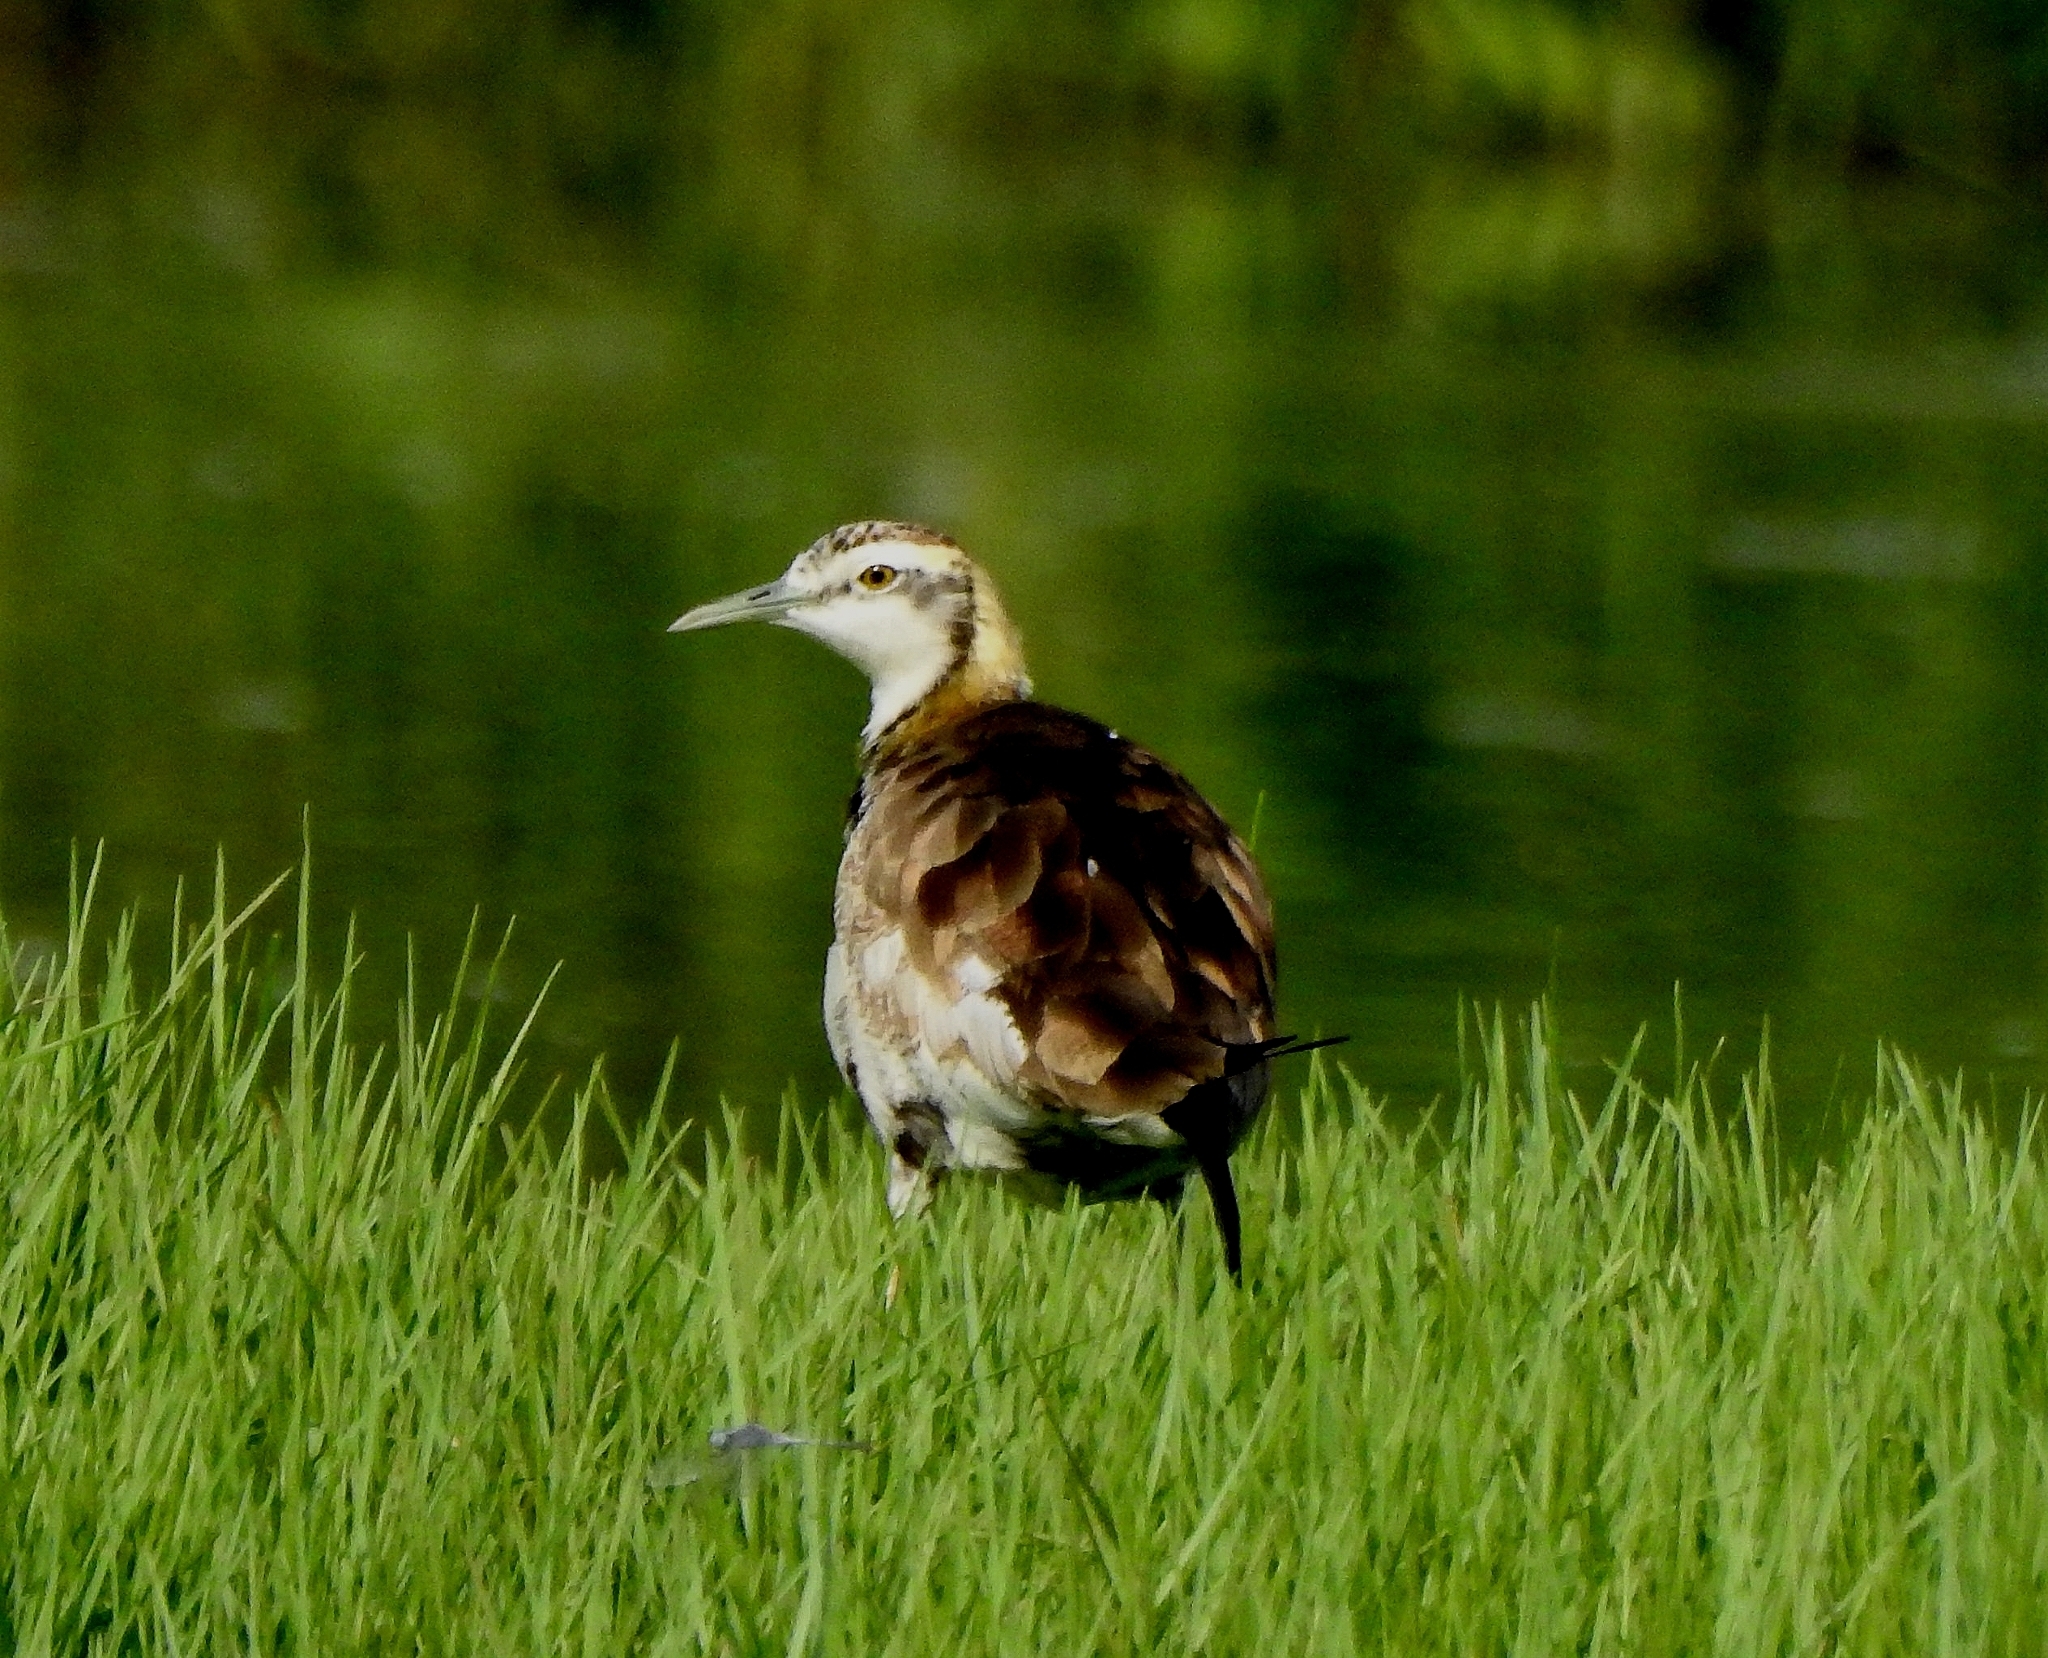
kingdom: Animalia
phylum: Chordata
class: Aves
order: Charadriiformes
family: Jacanidae
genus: Hydrophasianus
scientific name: Hydrophasianus chirurgus
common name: Pheasant-tailed jacana
